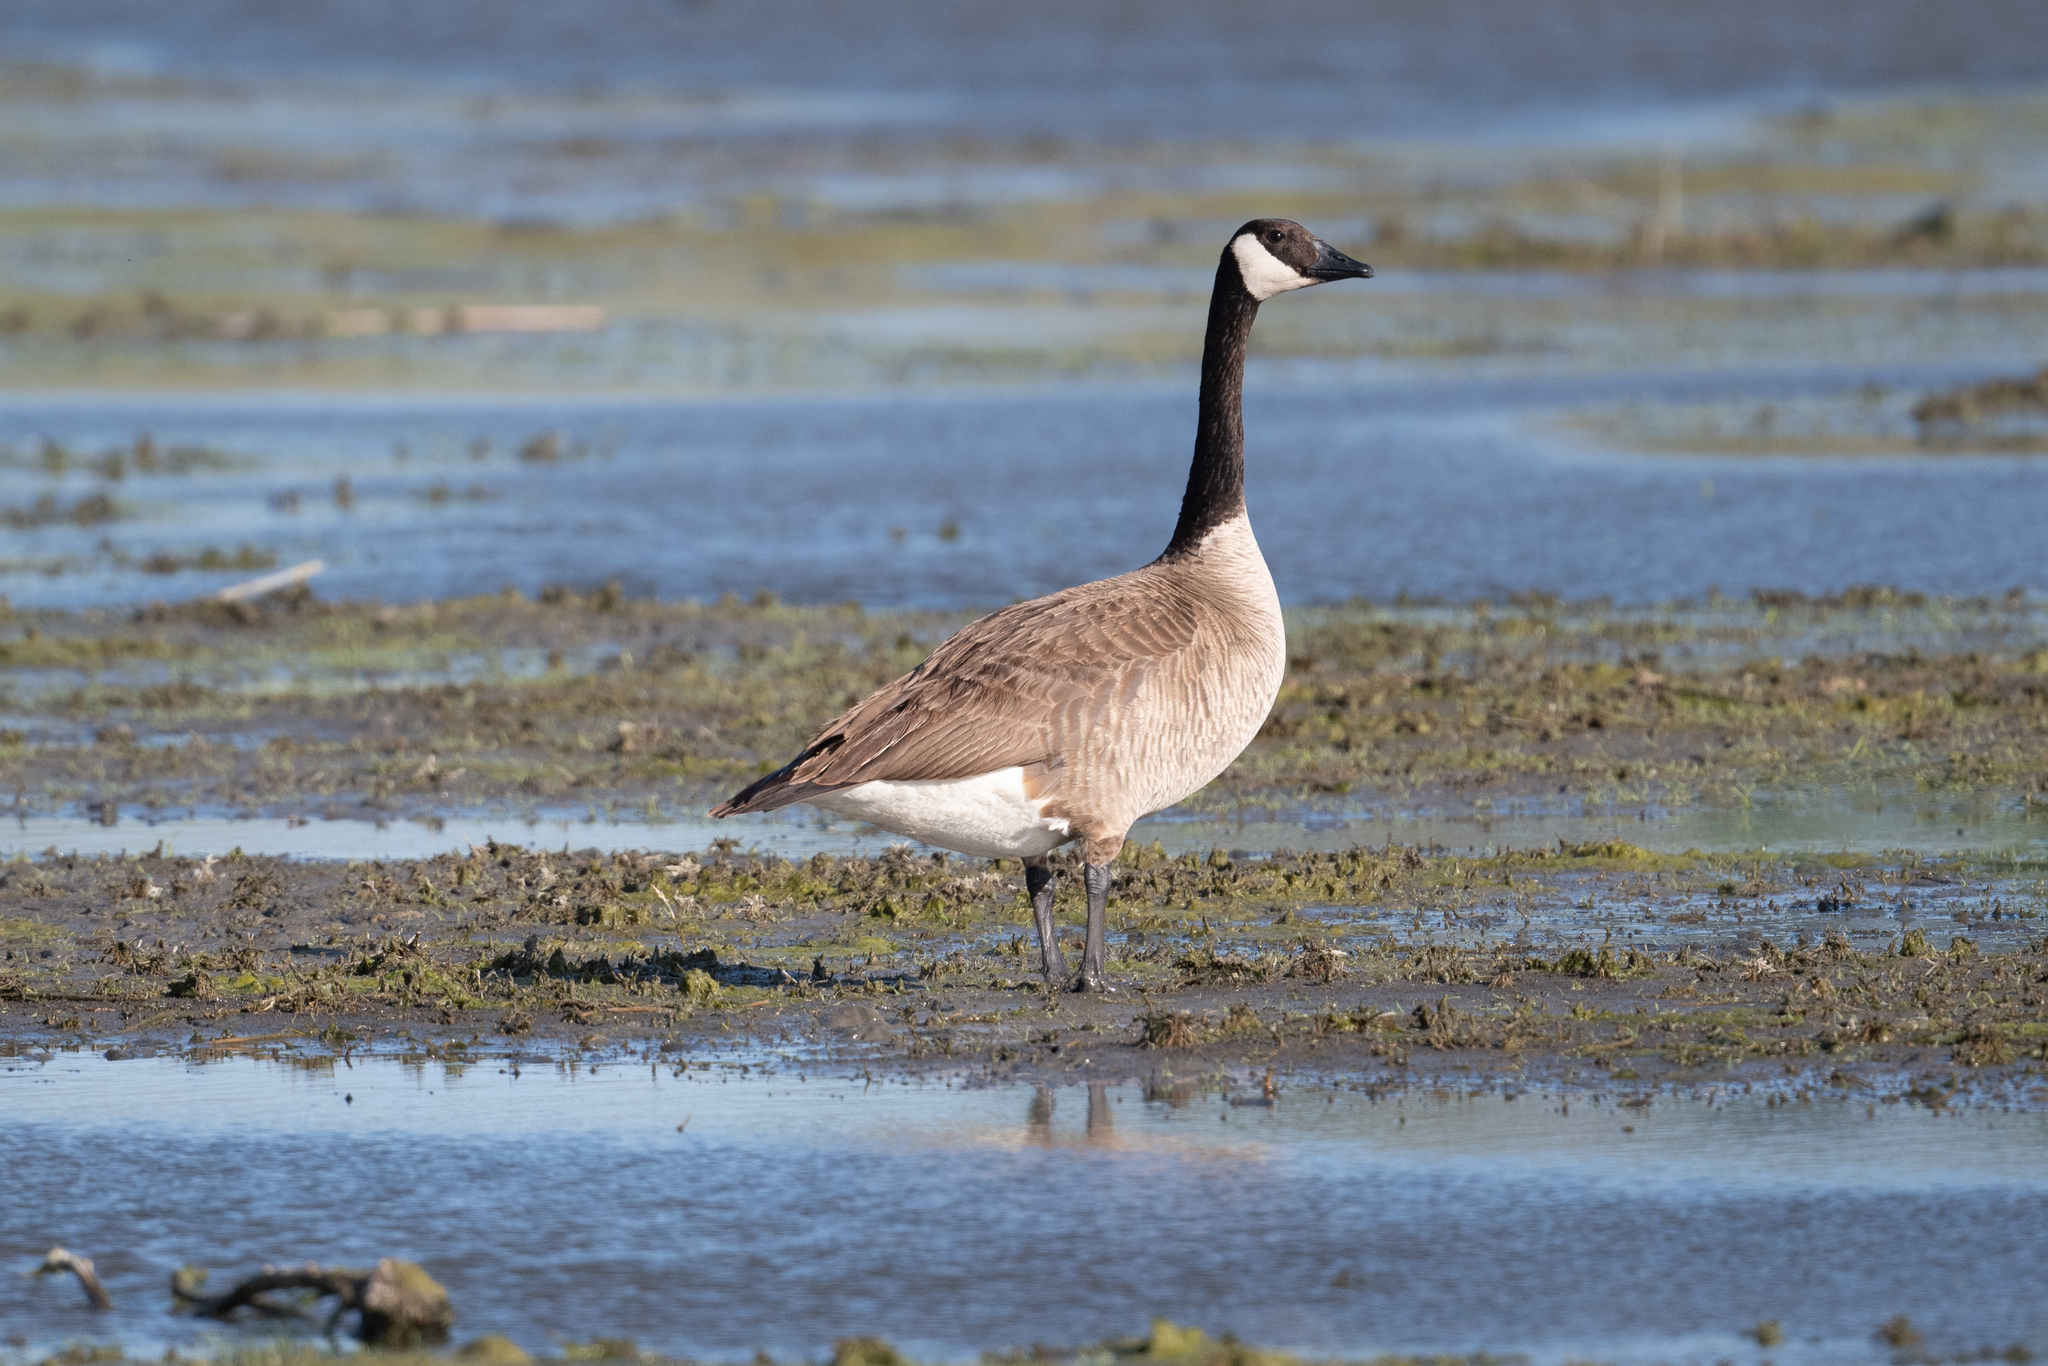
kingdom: Animalia
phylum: Chordata
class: Aves
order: Anseriformes
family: Anatidae
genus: Branta
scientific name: Branta canadensis
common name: Canada goose
